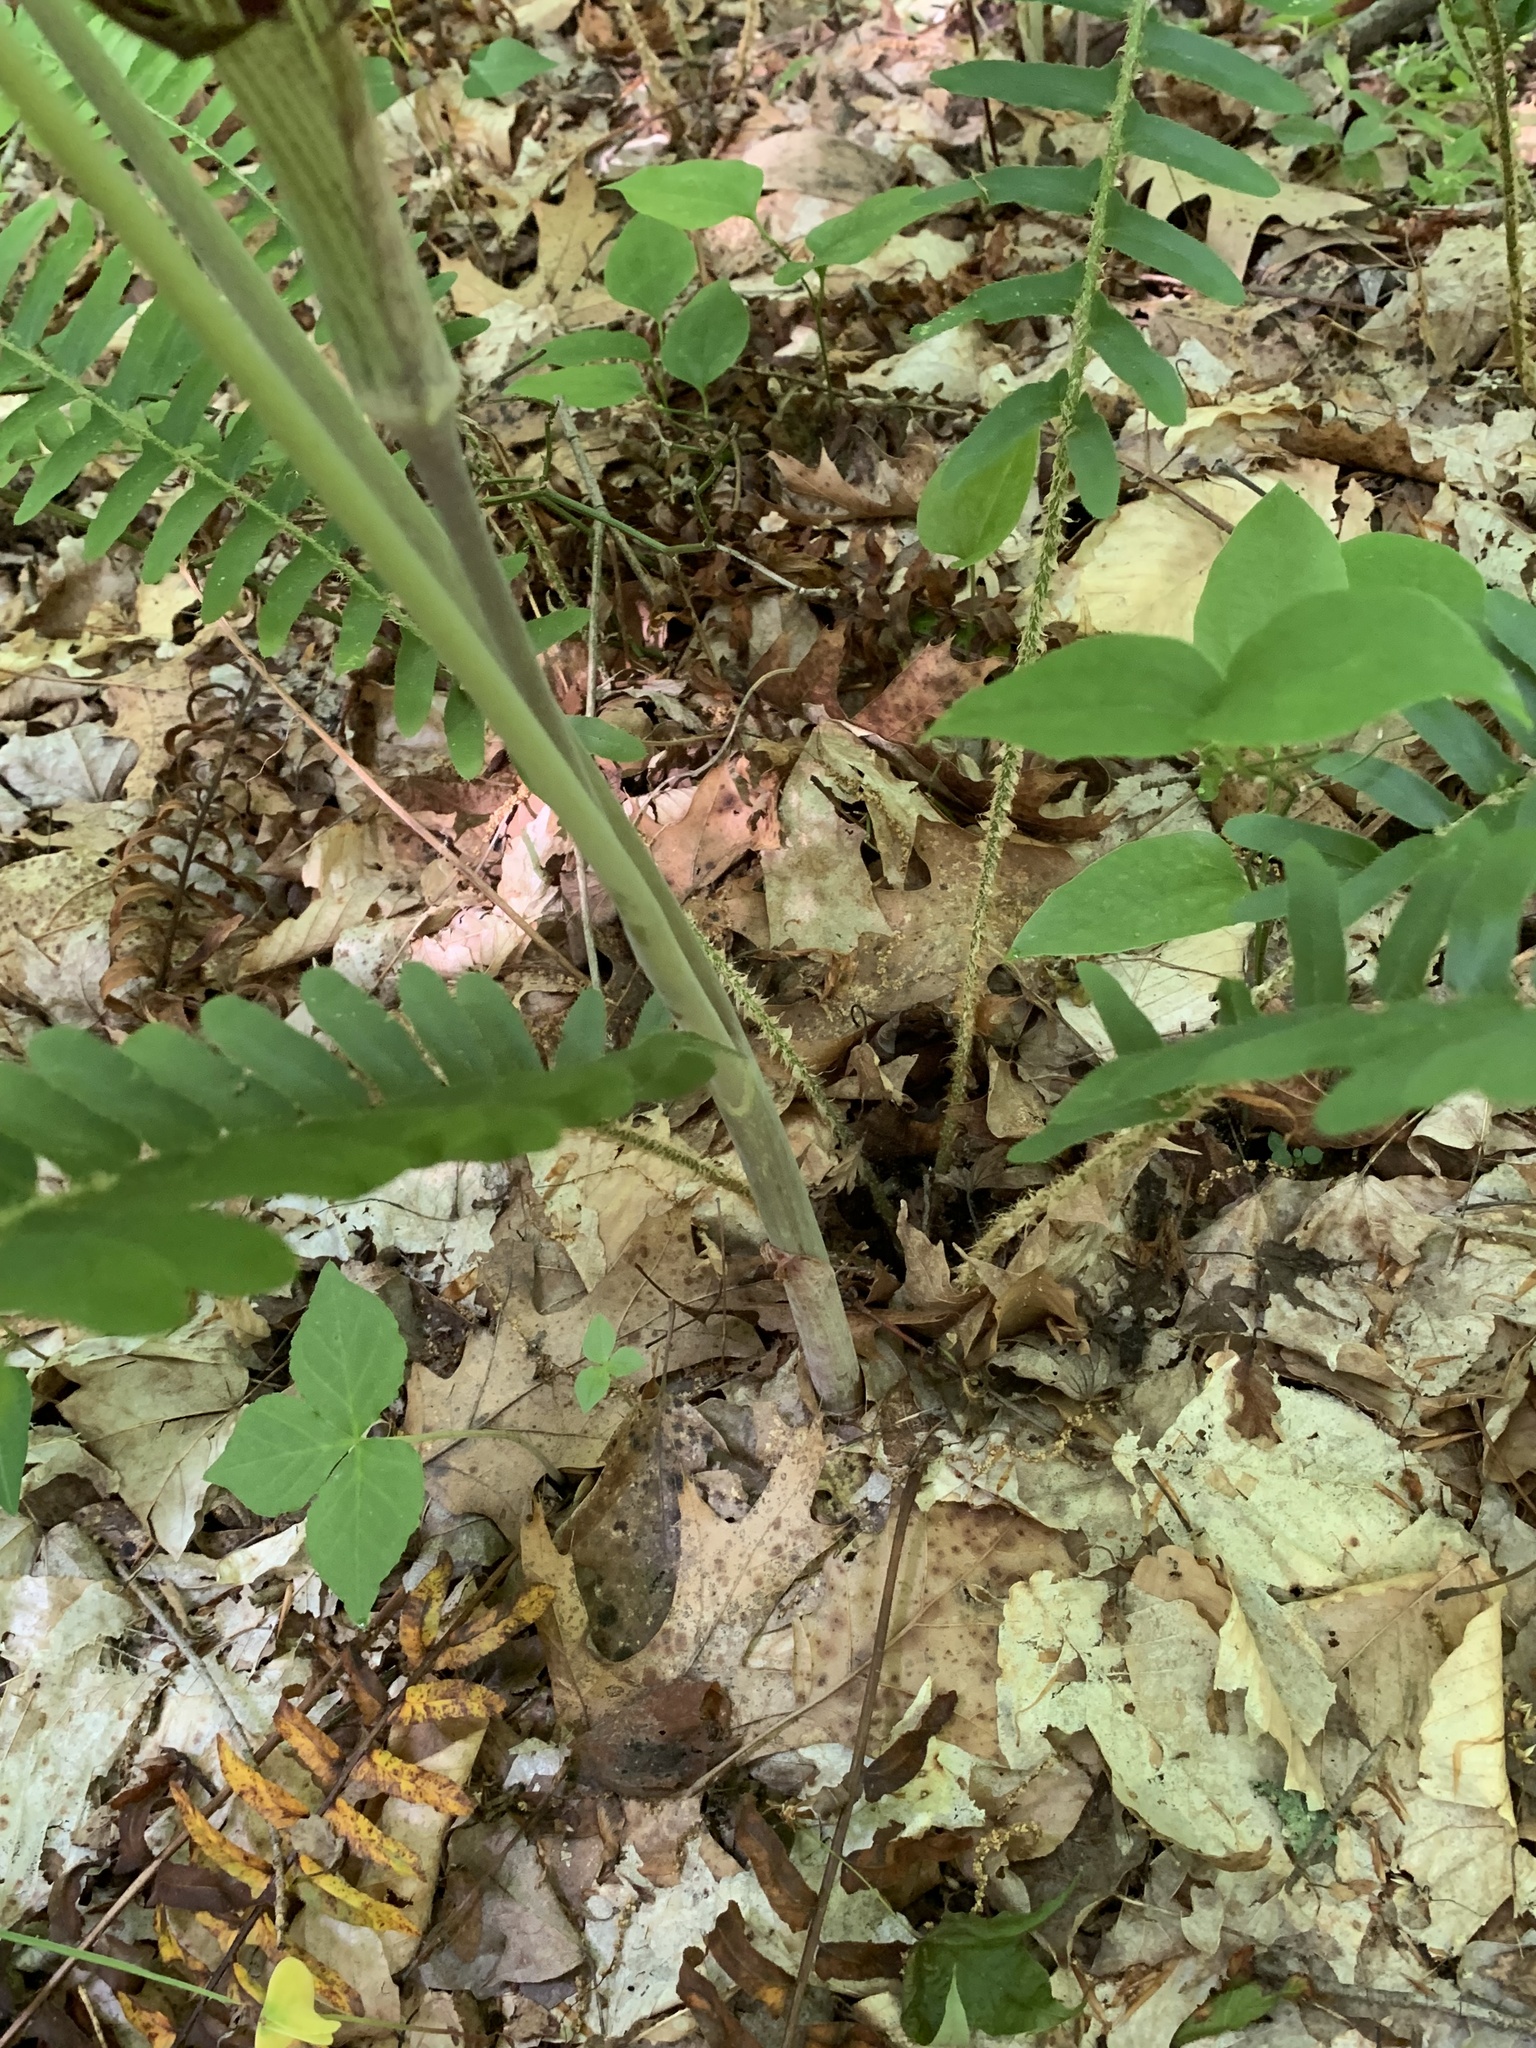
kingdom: Plantae
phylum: Tracheophyta
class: Liliopsida
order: Alismatales
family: Araceae
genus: Arisaema
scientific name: Arisaema triphyllum
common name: Jack-in-the-pulpit
